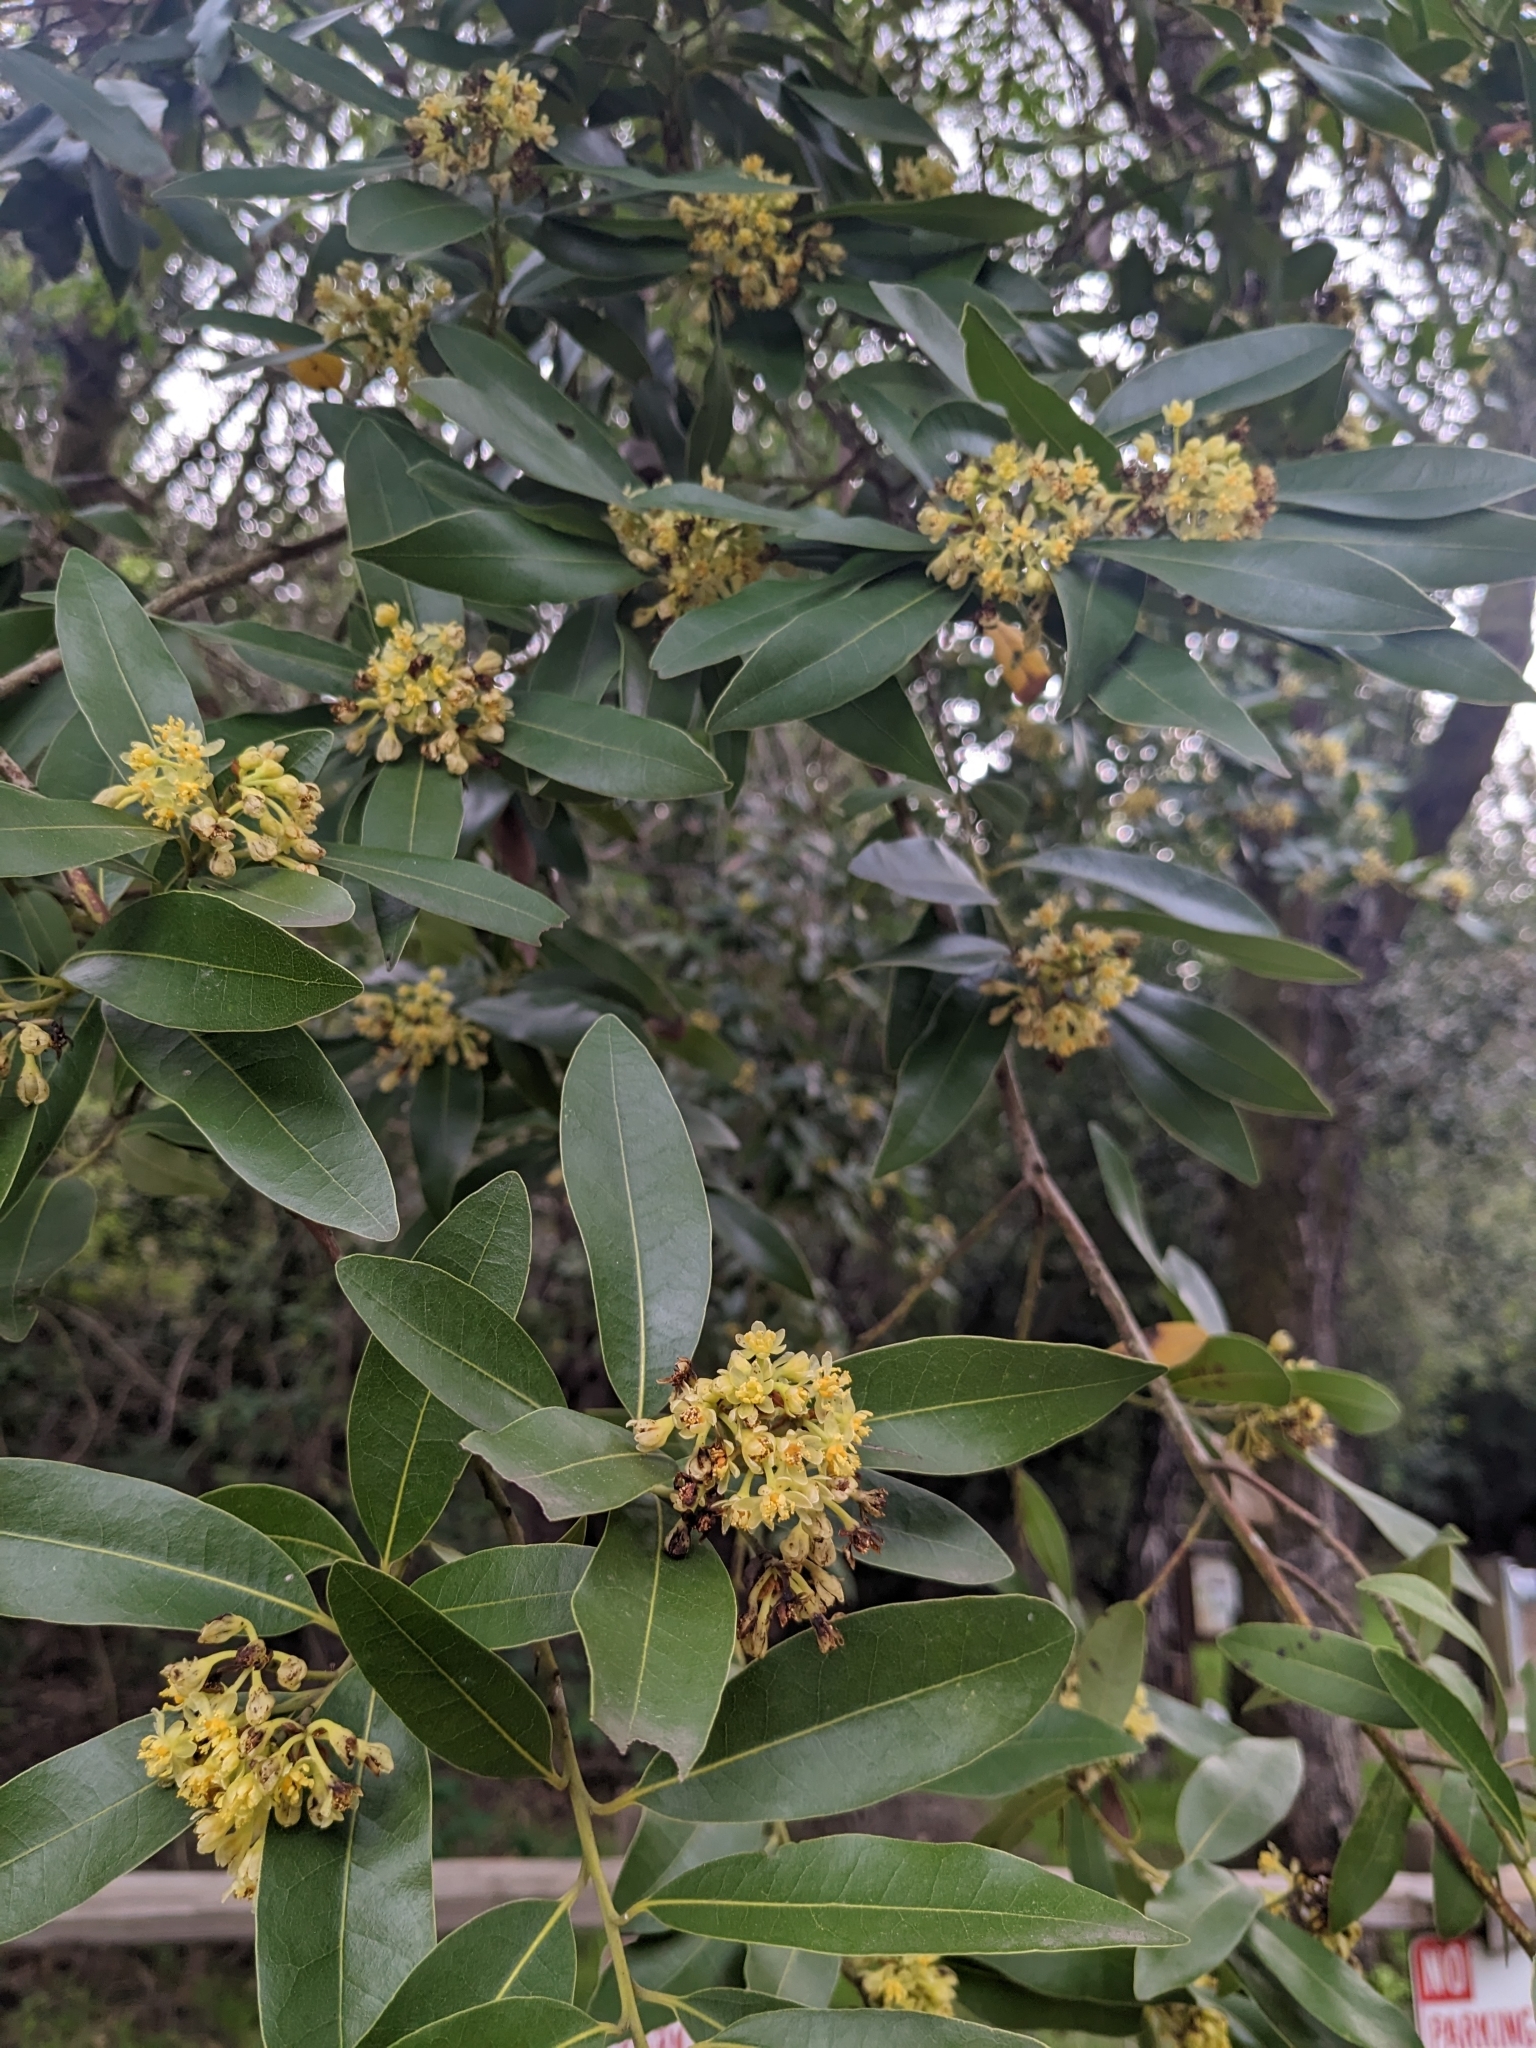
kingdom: Plantae
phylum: Tracheophyta
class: Magnoliopsida
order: Laurales
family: Lauraceae
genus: Umbellularia
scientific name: Umbellularia californica
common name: California bay
